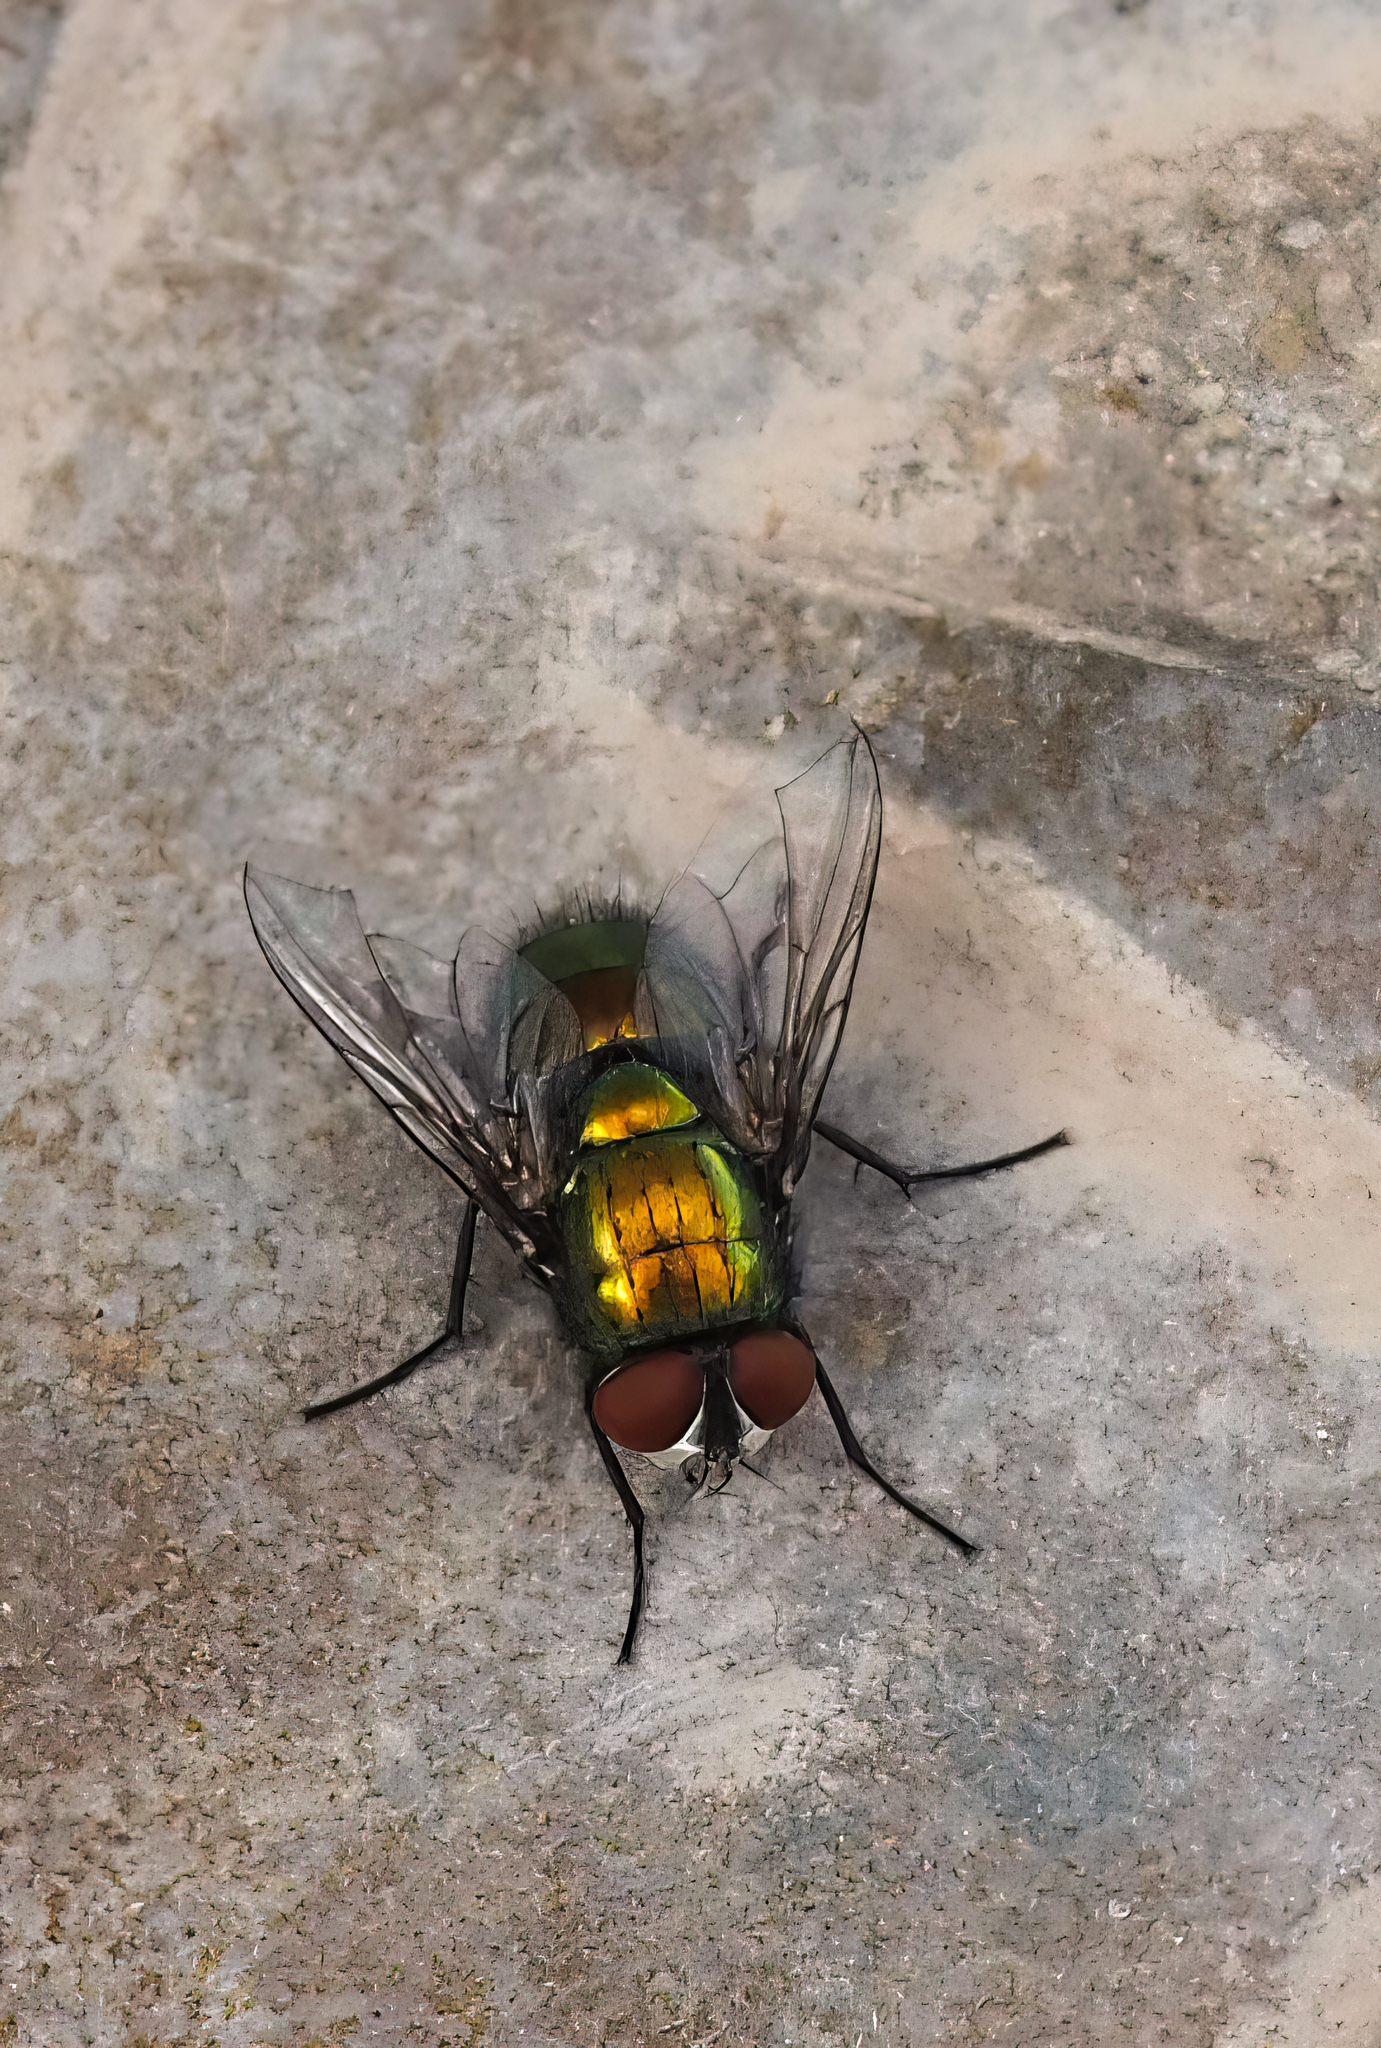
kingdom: Animalia
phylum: Arthropoda
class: Insecta
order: Diptera
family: Calliphoridae
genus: Lucilia
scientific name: Lucilia
